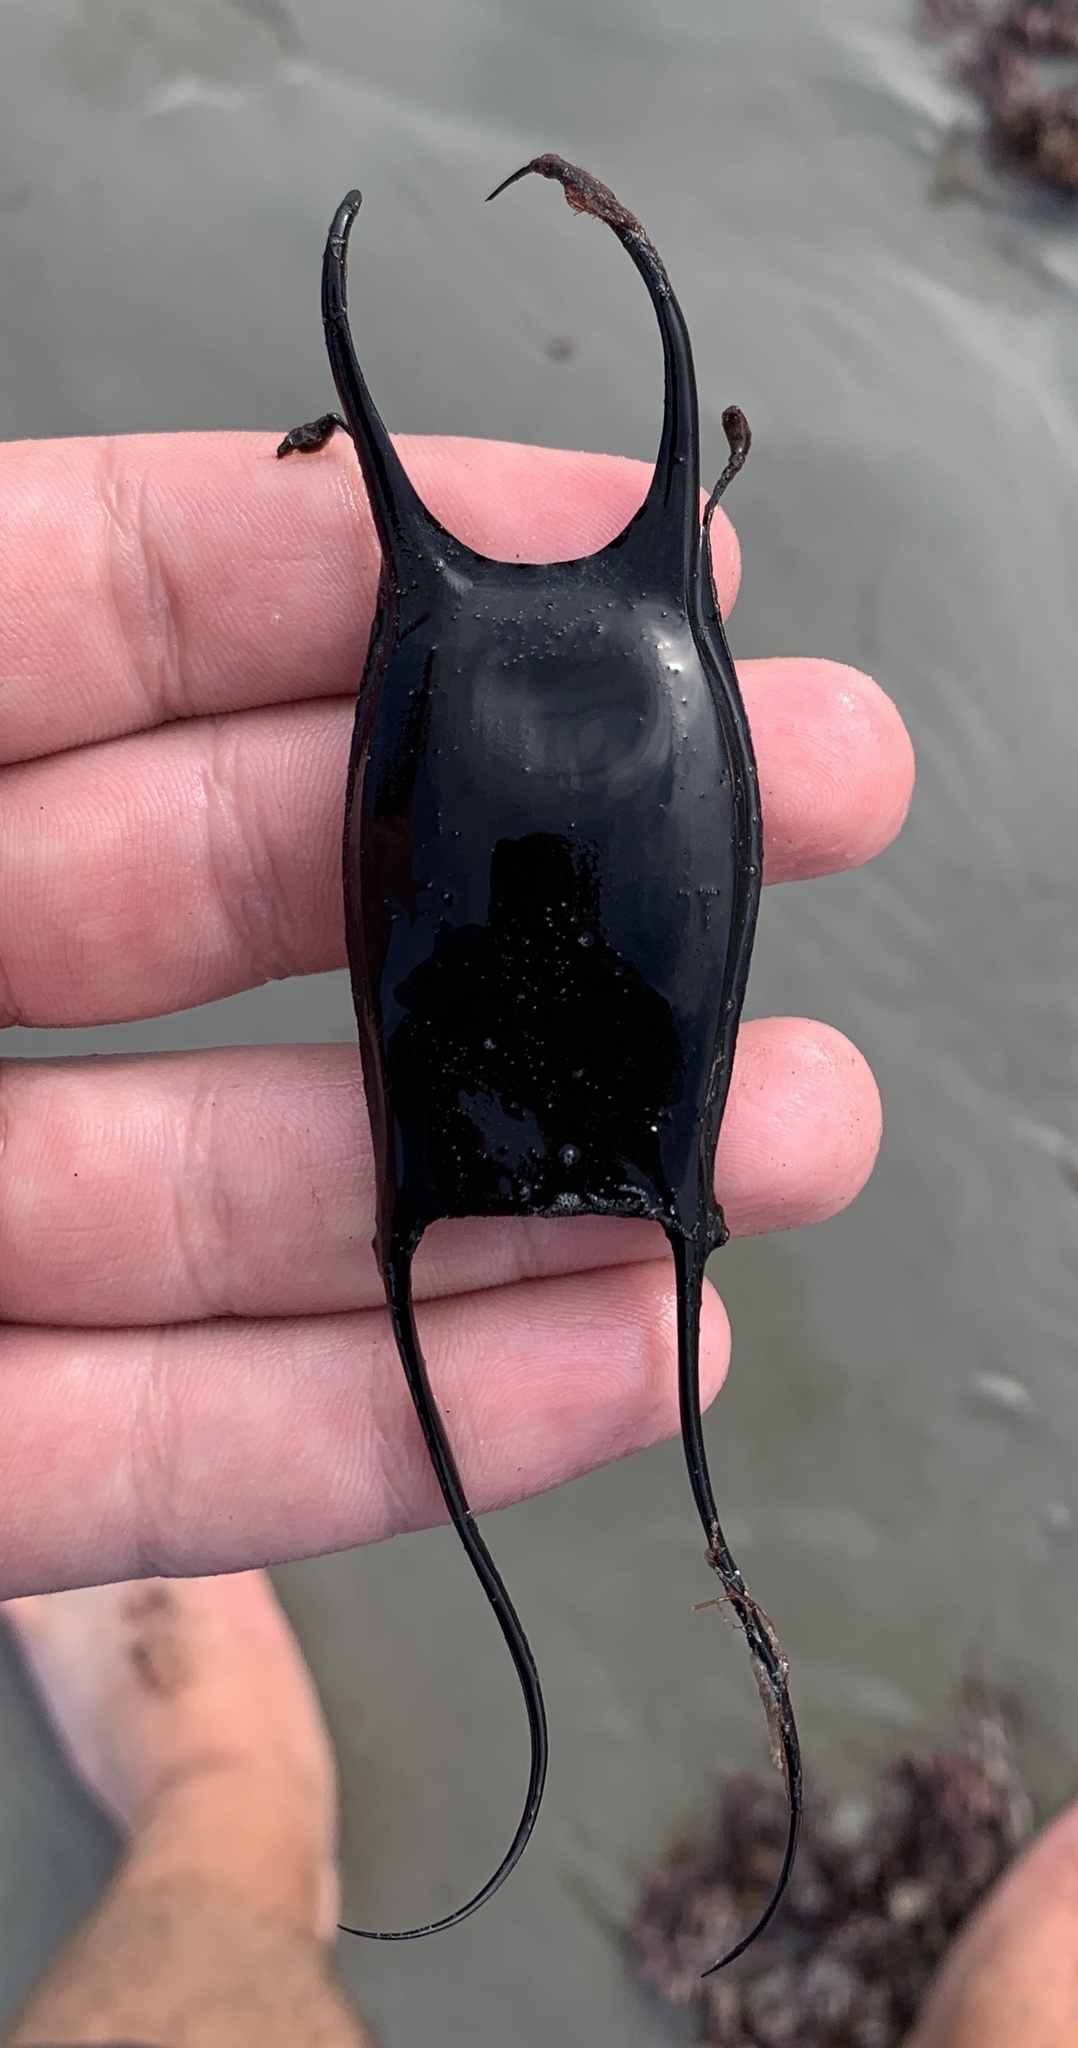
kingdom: Animalia
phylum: Chordata
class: Elasmobranchii
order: Rajiformes
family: Rajidae
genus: Leucoraja
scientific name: Leucoraja erinacea
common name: Little skate
